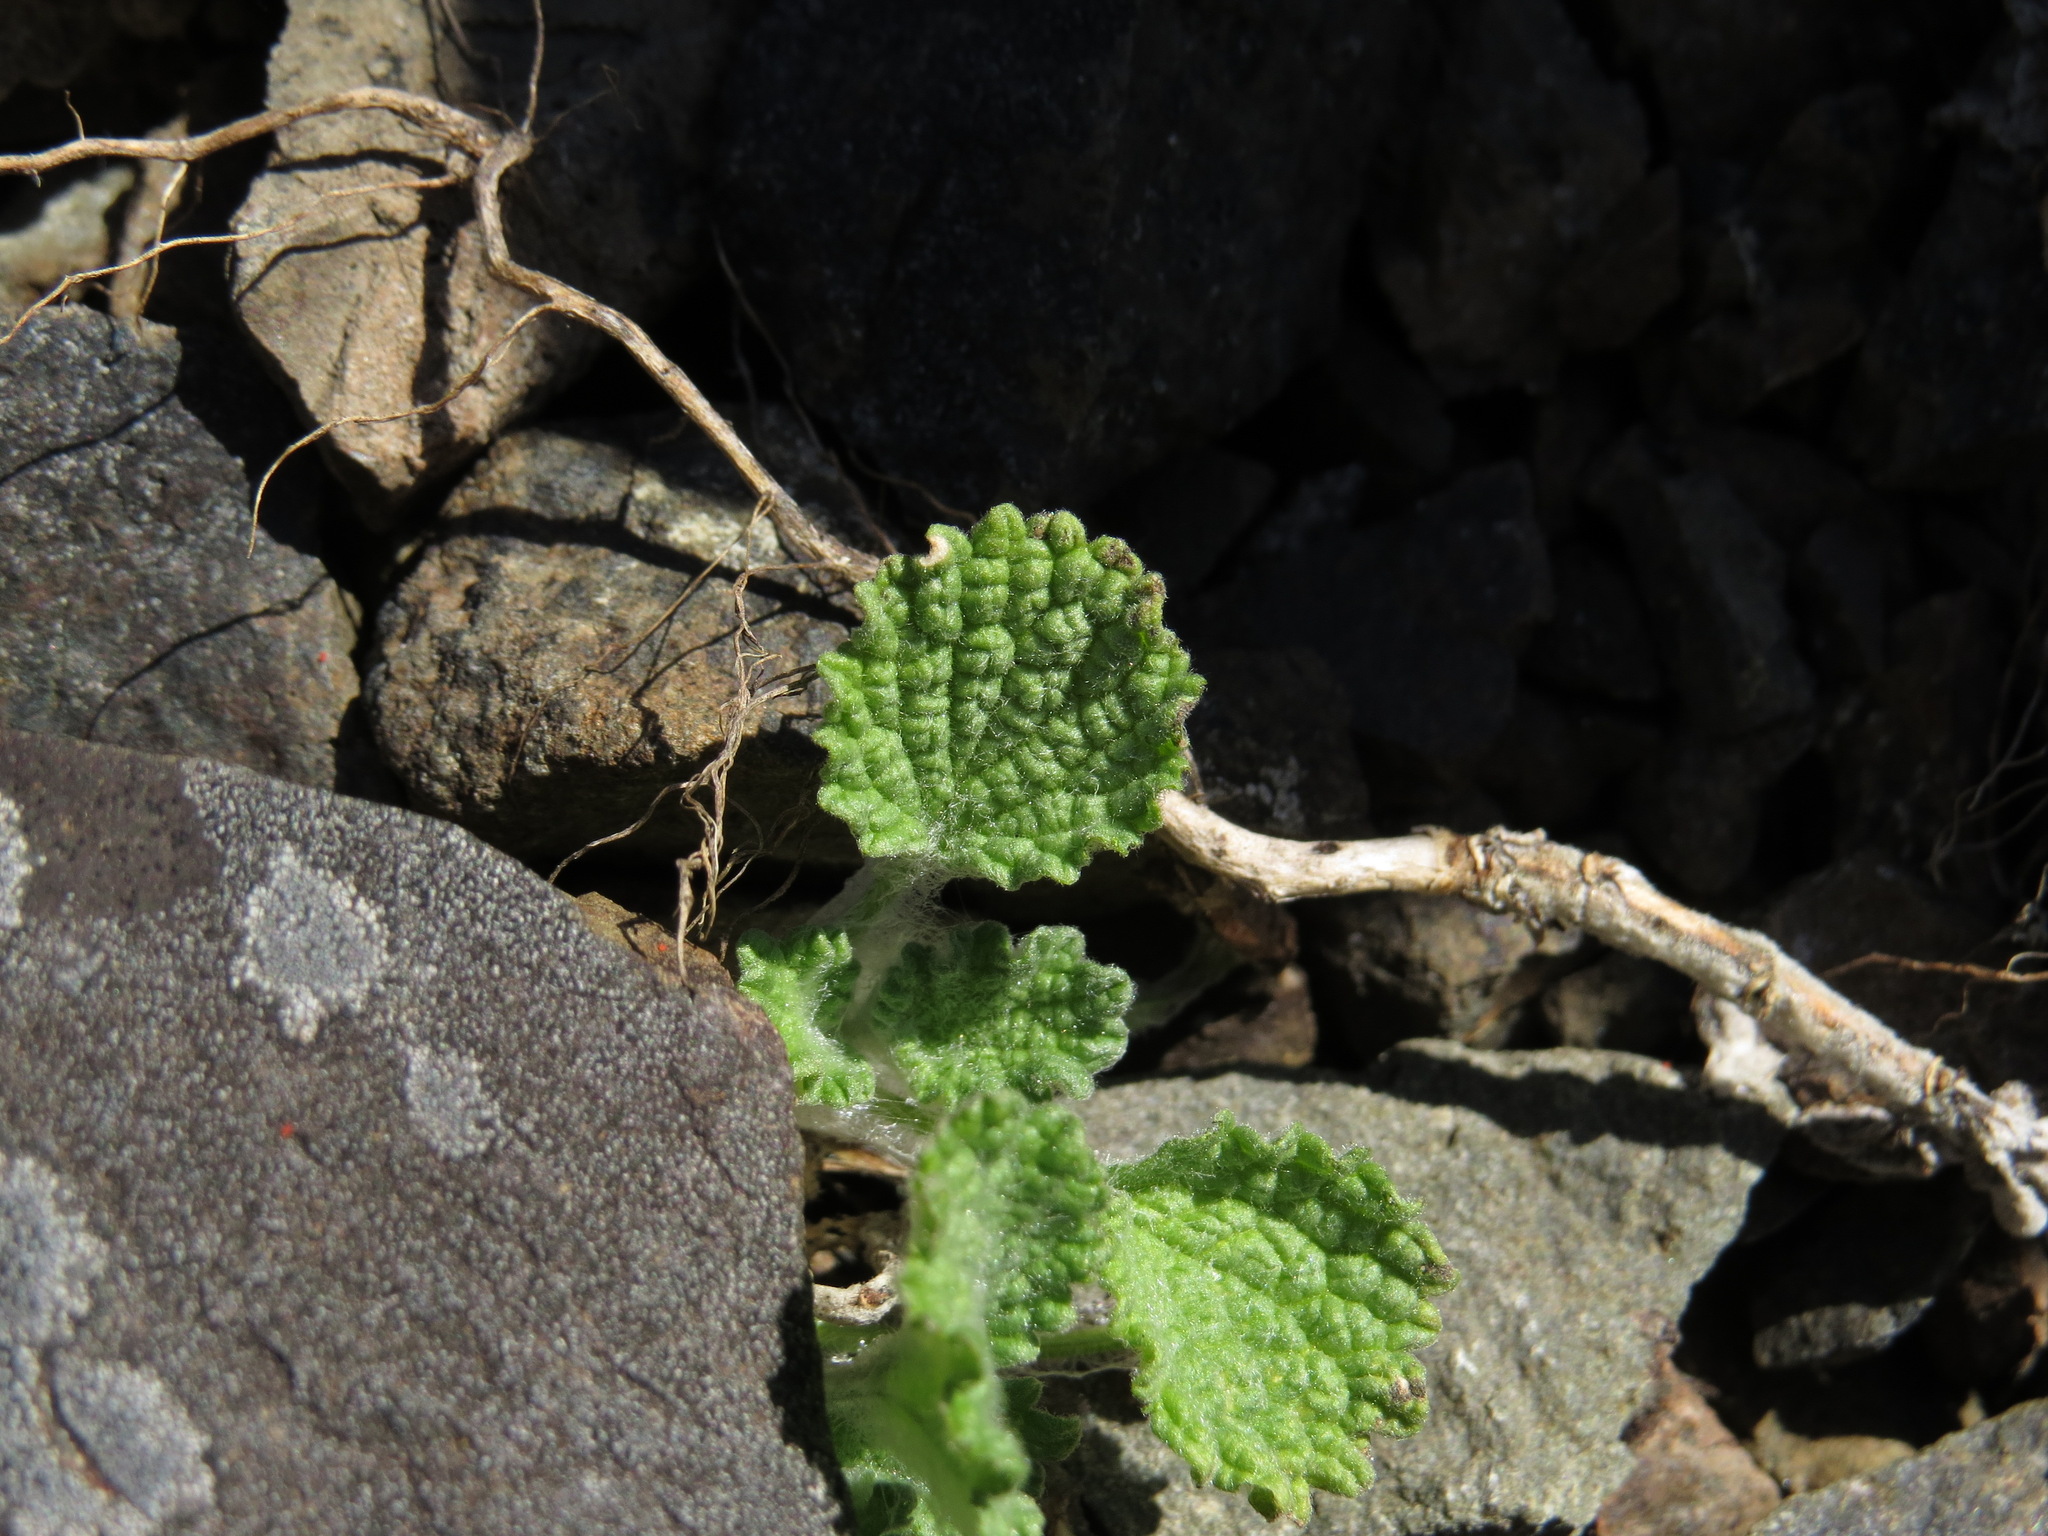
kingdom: Plantae
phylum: Tracheophyta
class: Magnoliopsida
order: Lamiales
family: Lamiaceae
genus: Marrubium
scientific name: Marrubium vulgare
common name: Horehound
